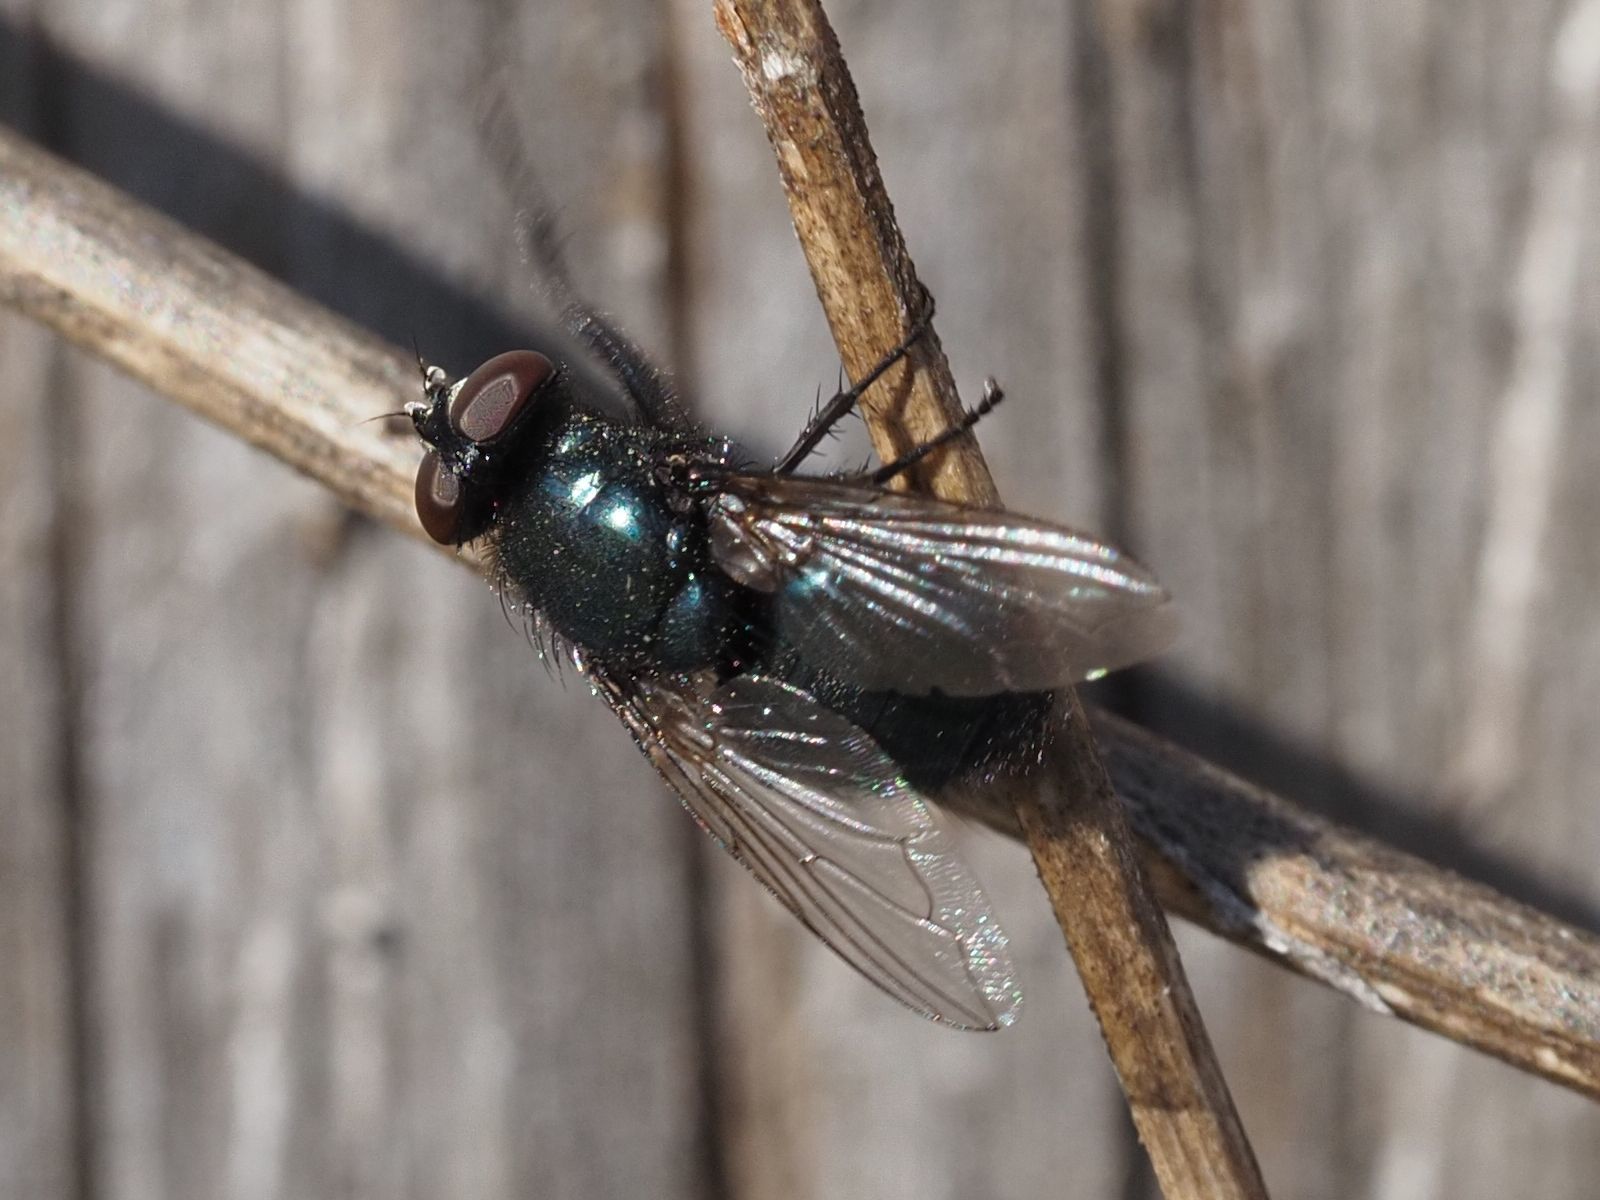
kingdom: Animalia
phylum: Arthropoda
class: Insecta
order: Diptera
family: Calliphoridae
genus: Protophormia
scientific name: Protophormia terraenovae
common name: Blackbottle
